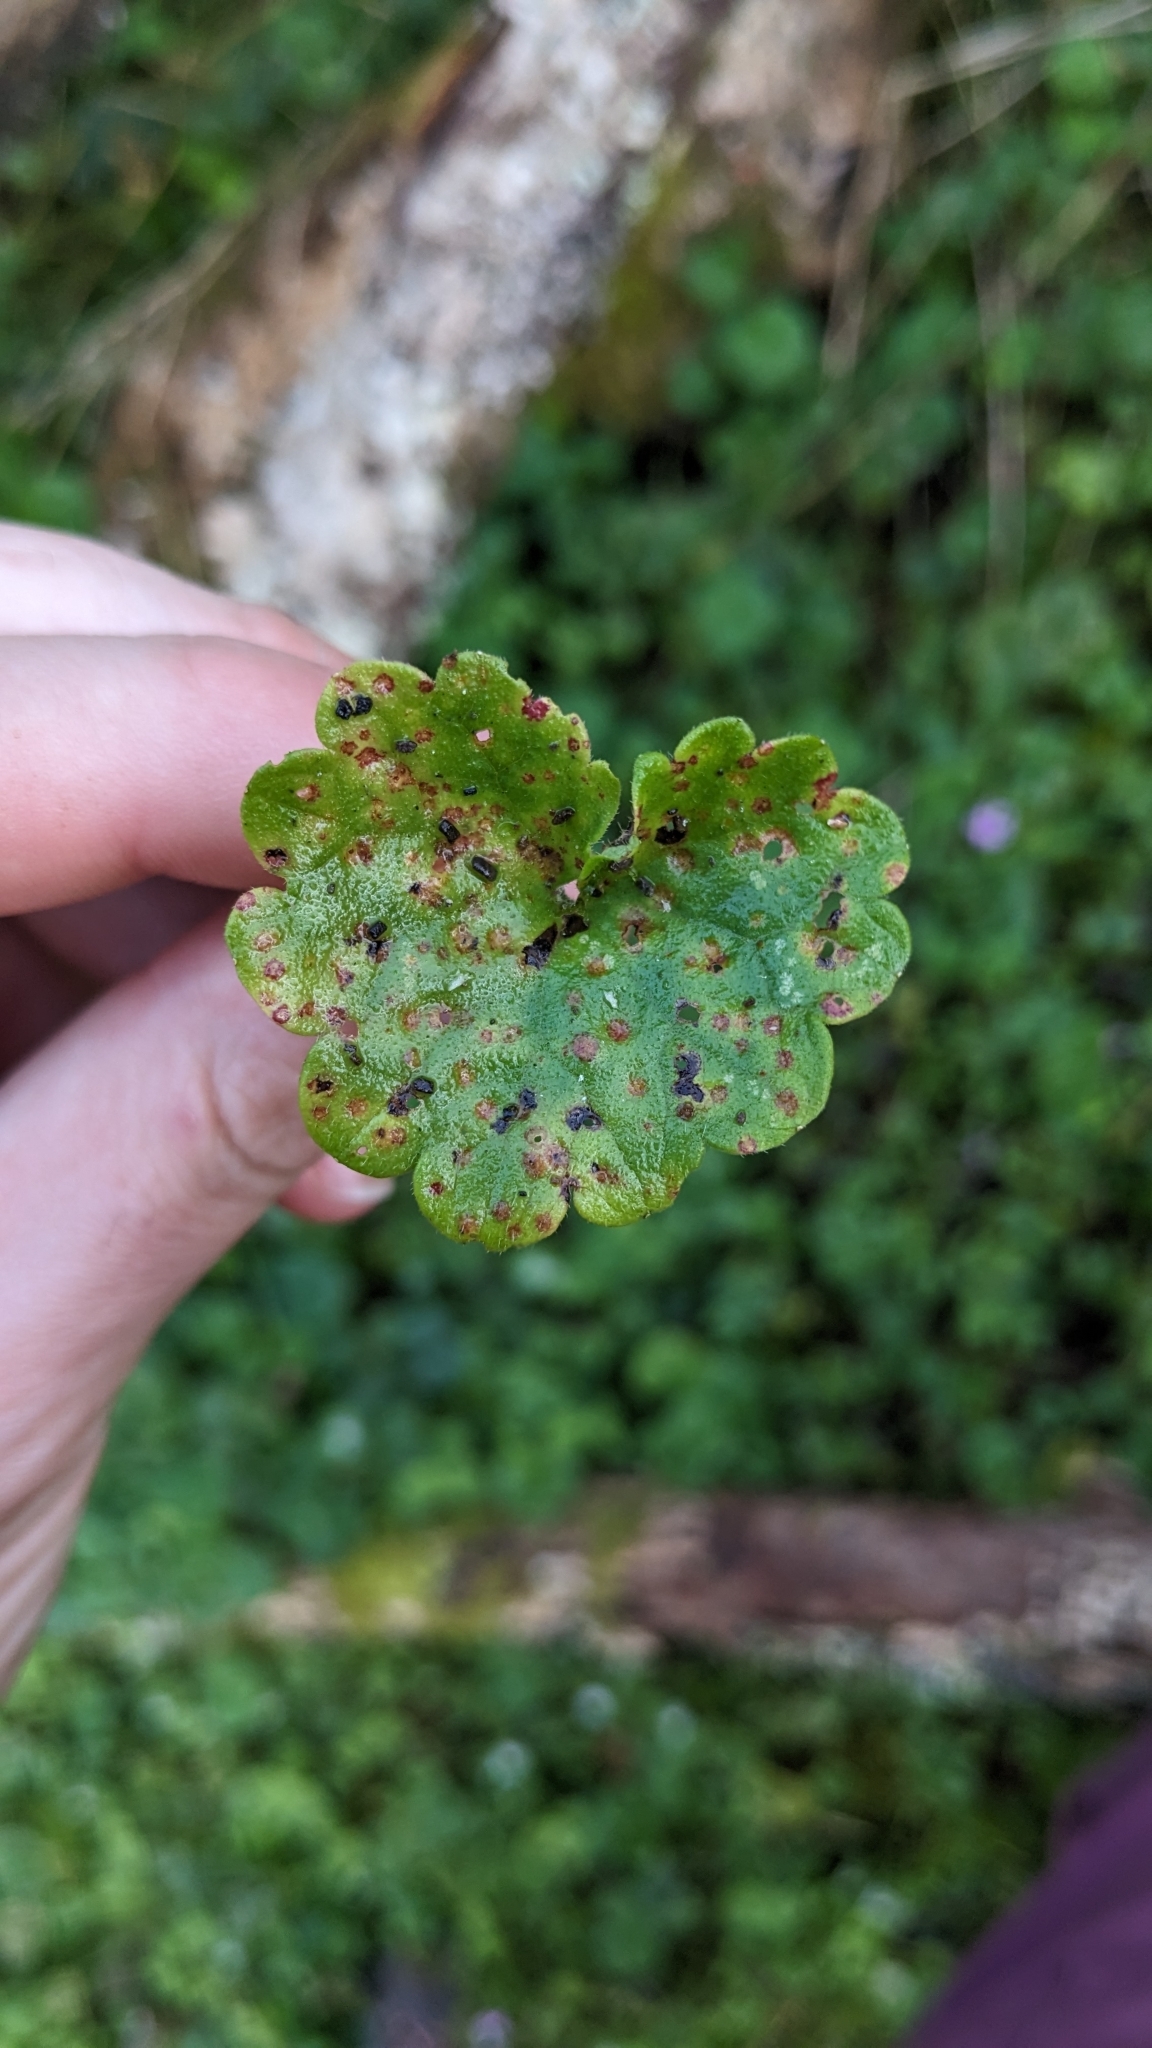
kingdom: Fungi
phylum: Basidiomycota
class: Pucciniomycetes
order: Pucciniales
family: Pucciniaceae
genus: Puccinia
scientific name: Puccinia glechomatis
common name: Ground ivy rust
